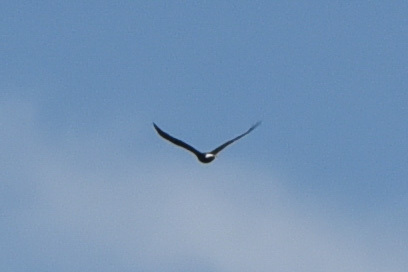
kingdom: Animalia
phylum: Chordata
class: Aves
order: Accipitriformes
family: Accipitridae
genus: Haliaeetus
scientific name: Haliaeetus leucocephalus
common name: Bald eagle
